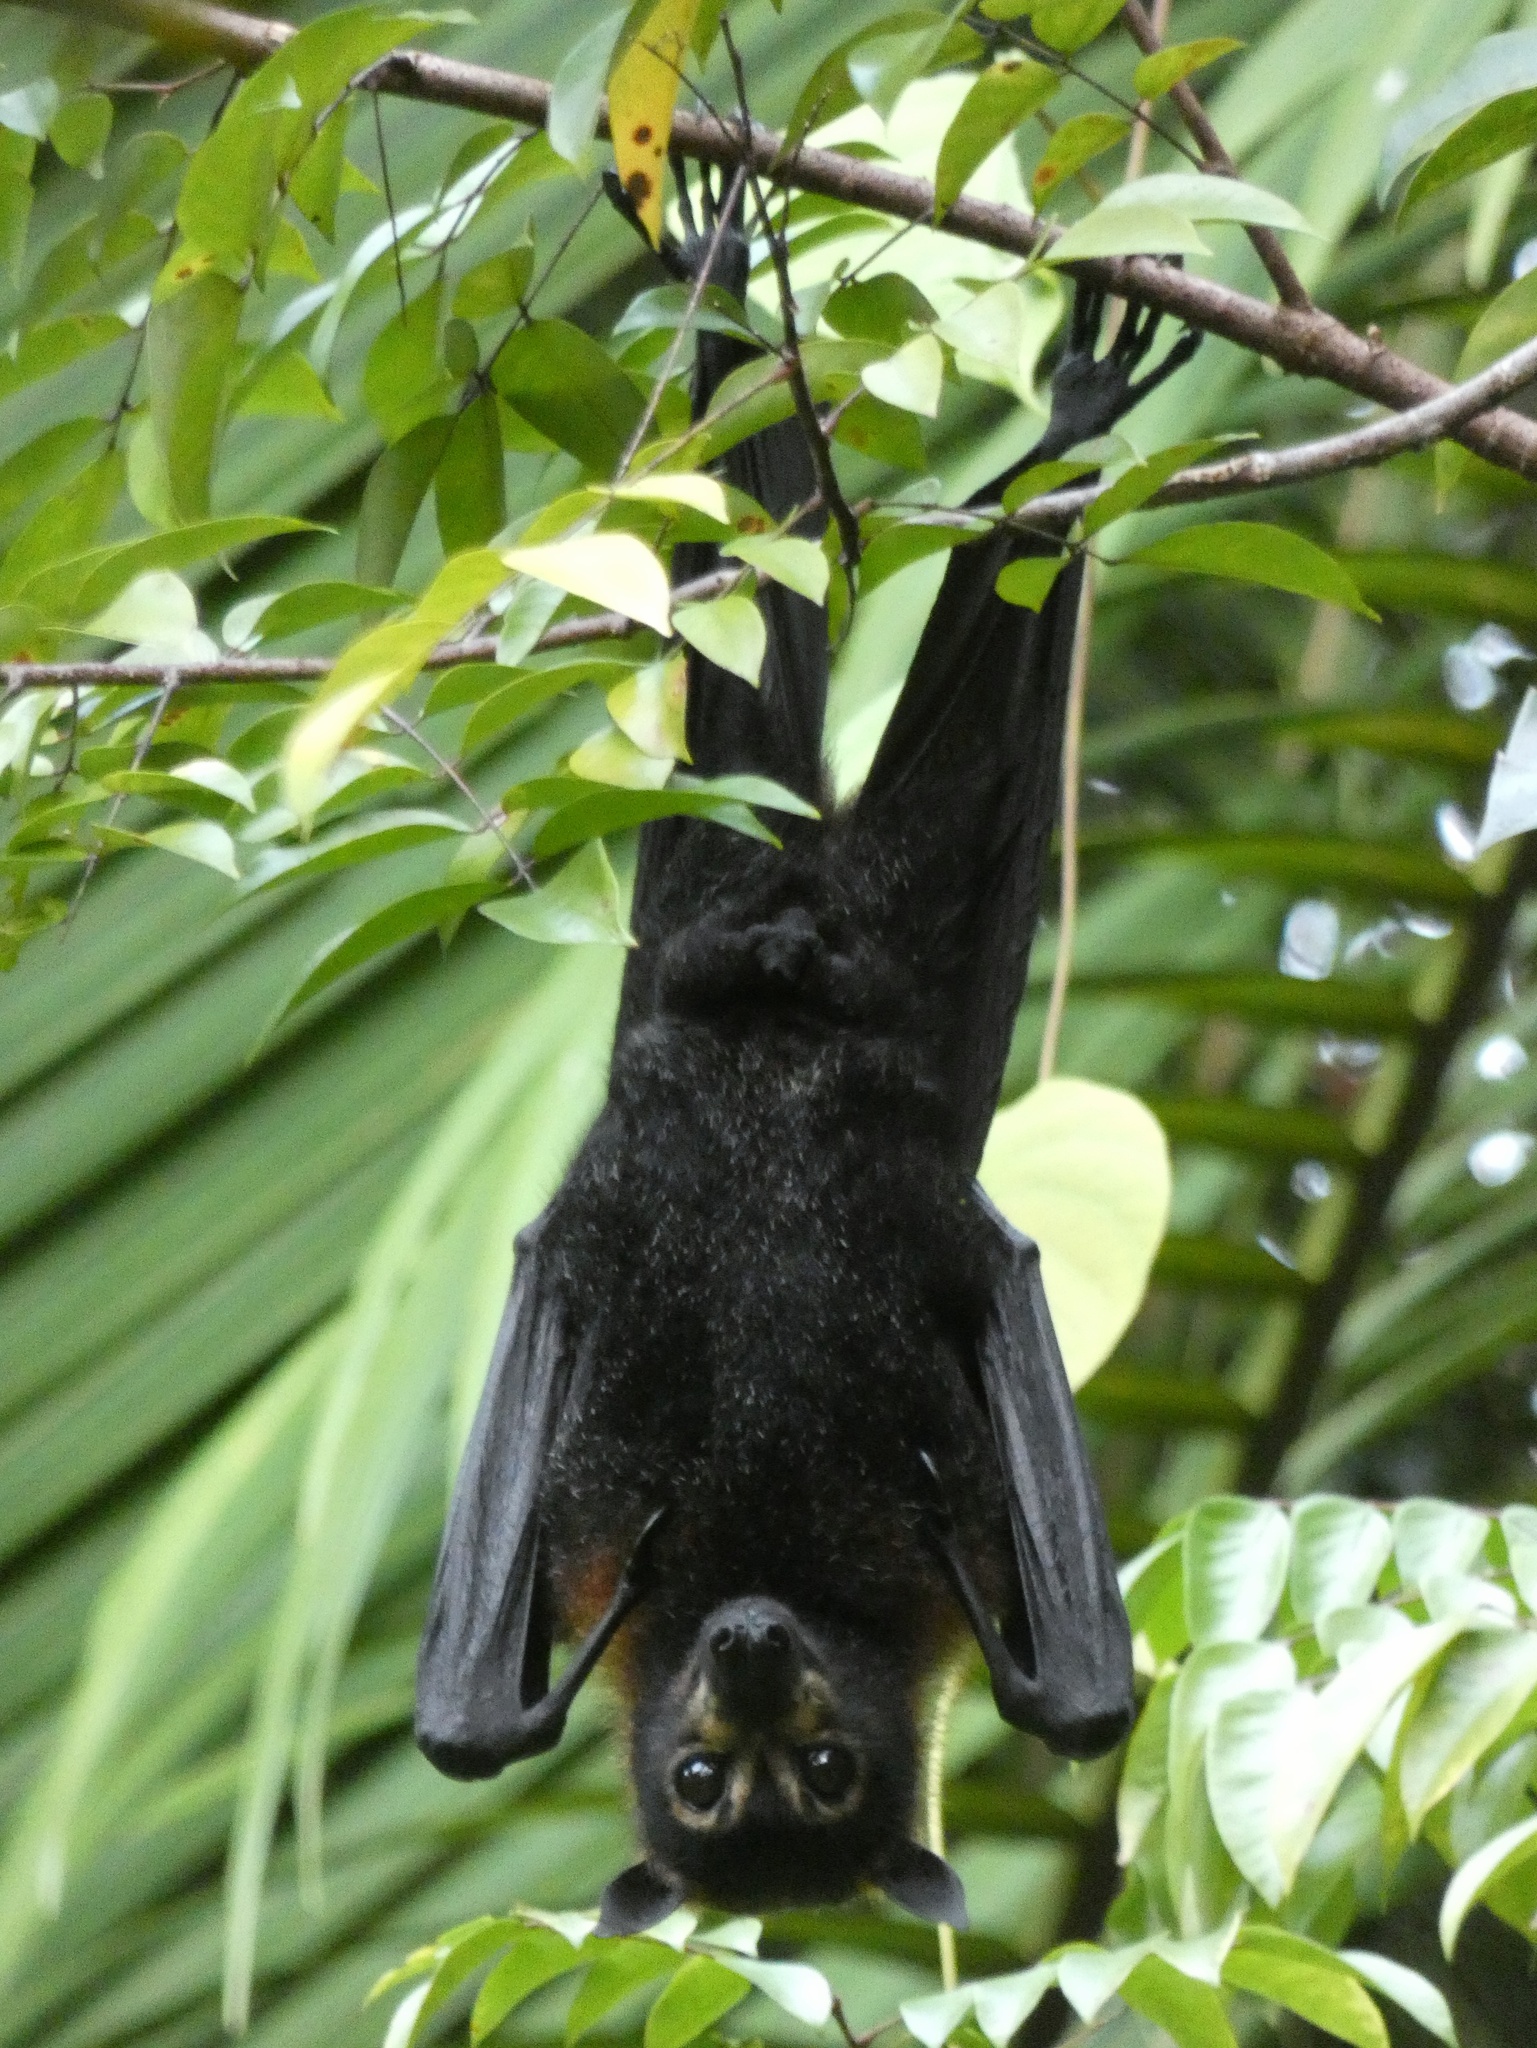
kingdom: Animalia
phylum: Chordata
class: Mammalia
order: Chiroptera
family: Pteropodidae
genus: Pteropus
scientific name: Pteropus conspicillatus
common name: Spectacled flying fox
